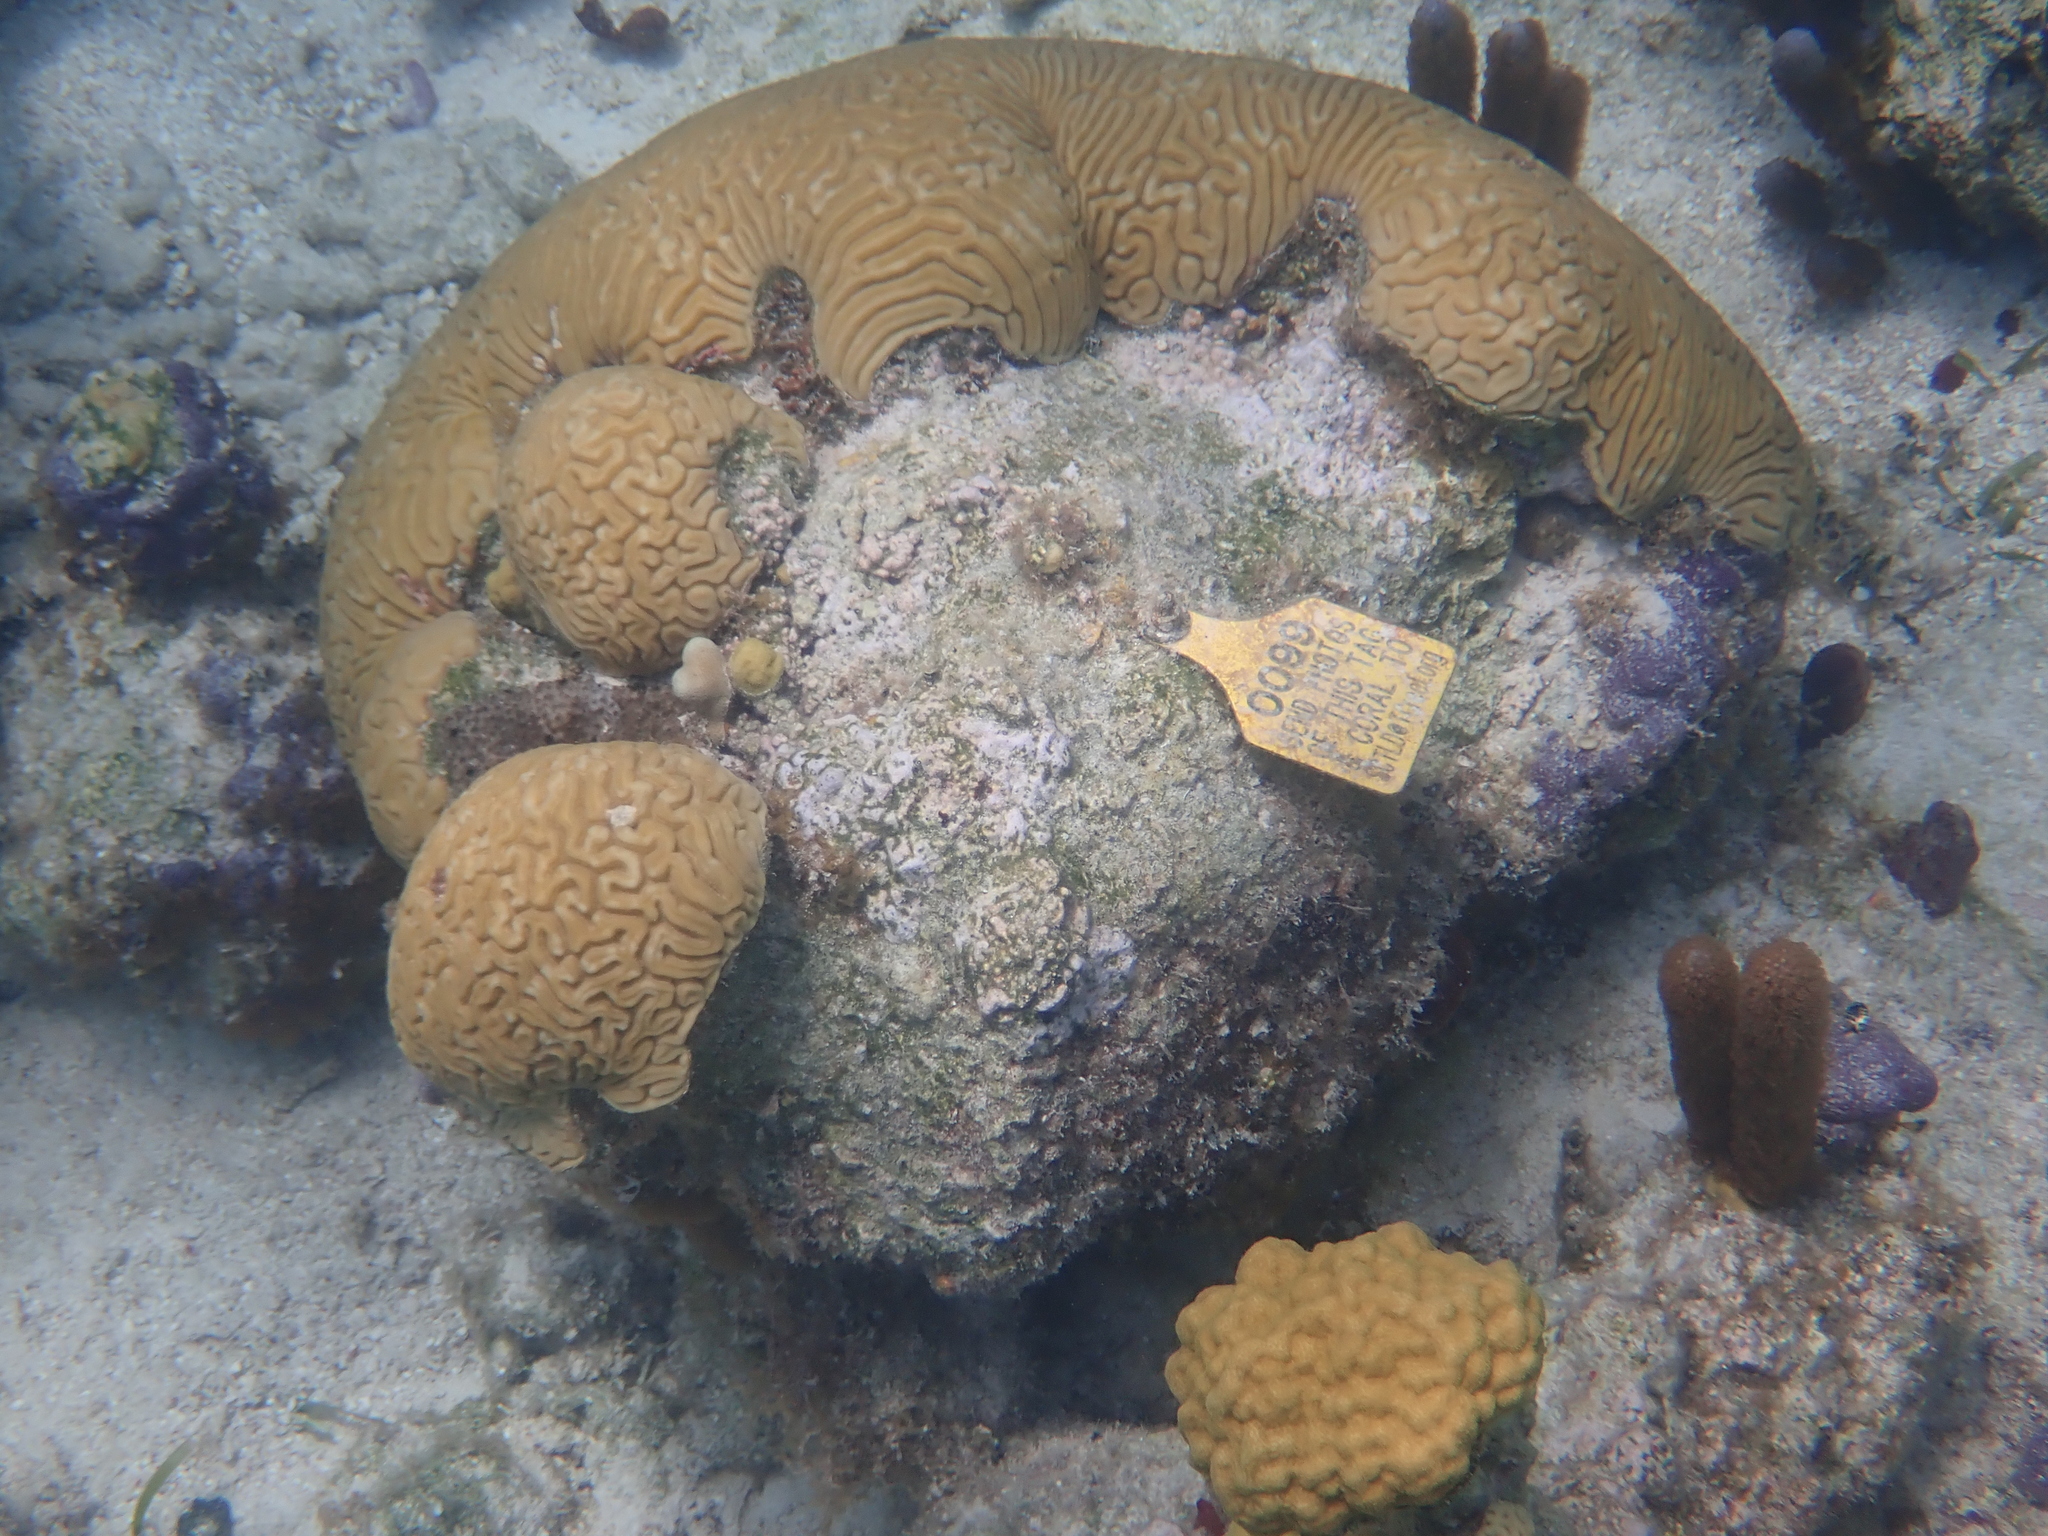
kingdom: Animalia
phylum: Cnidaria
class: Anthozoa
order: Scleractinia
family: Faviidae
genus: Diploria
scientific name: Diploria labyrinthiformis
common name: Grooved brain coral
